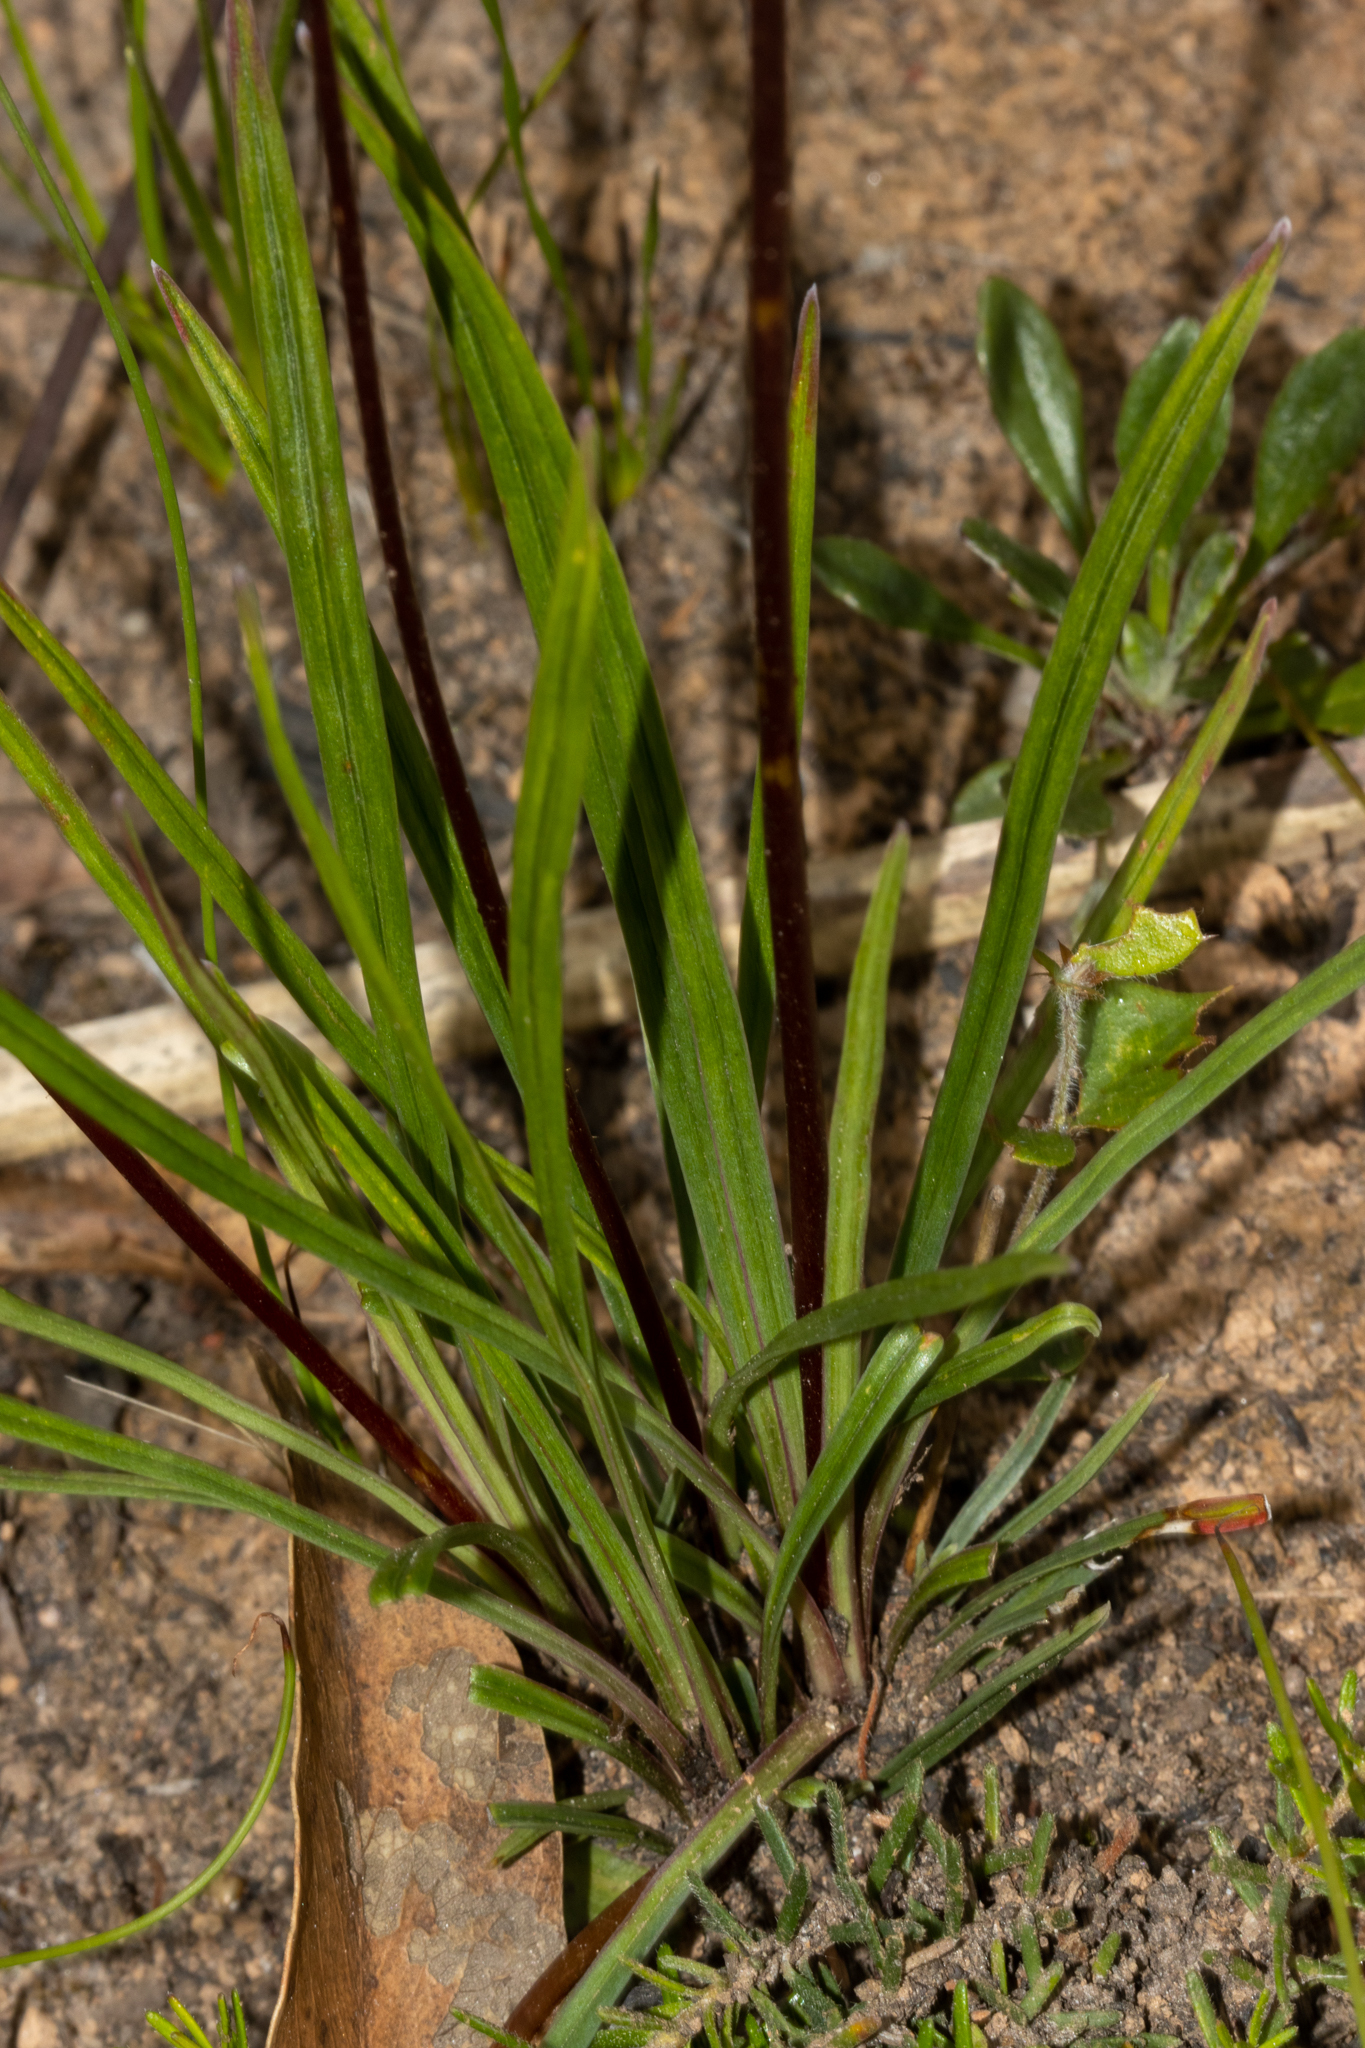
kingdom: Plantae
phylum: Tracheophyta
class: Magnoliopsida
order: Asterales
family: Stylidiaceae
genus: Stylidium
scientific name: Stylidium graminifolium
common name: Grass triggerplant
